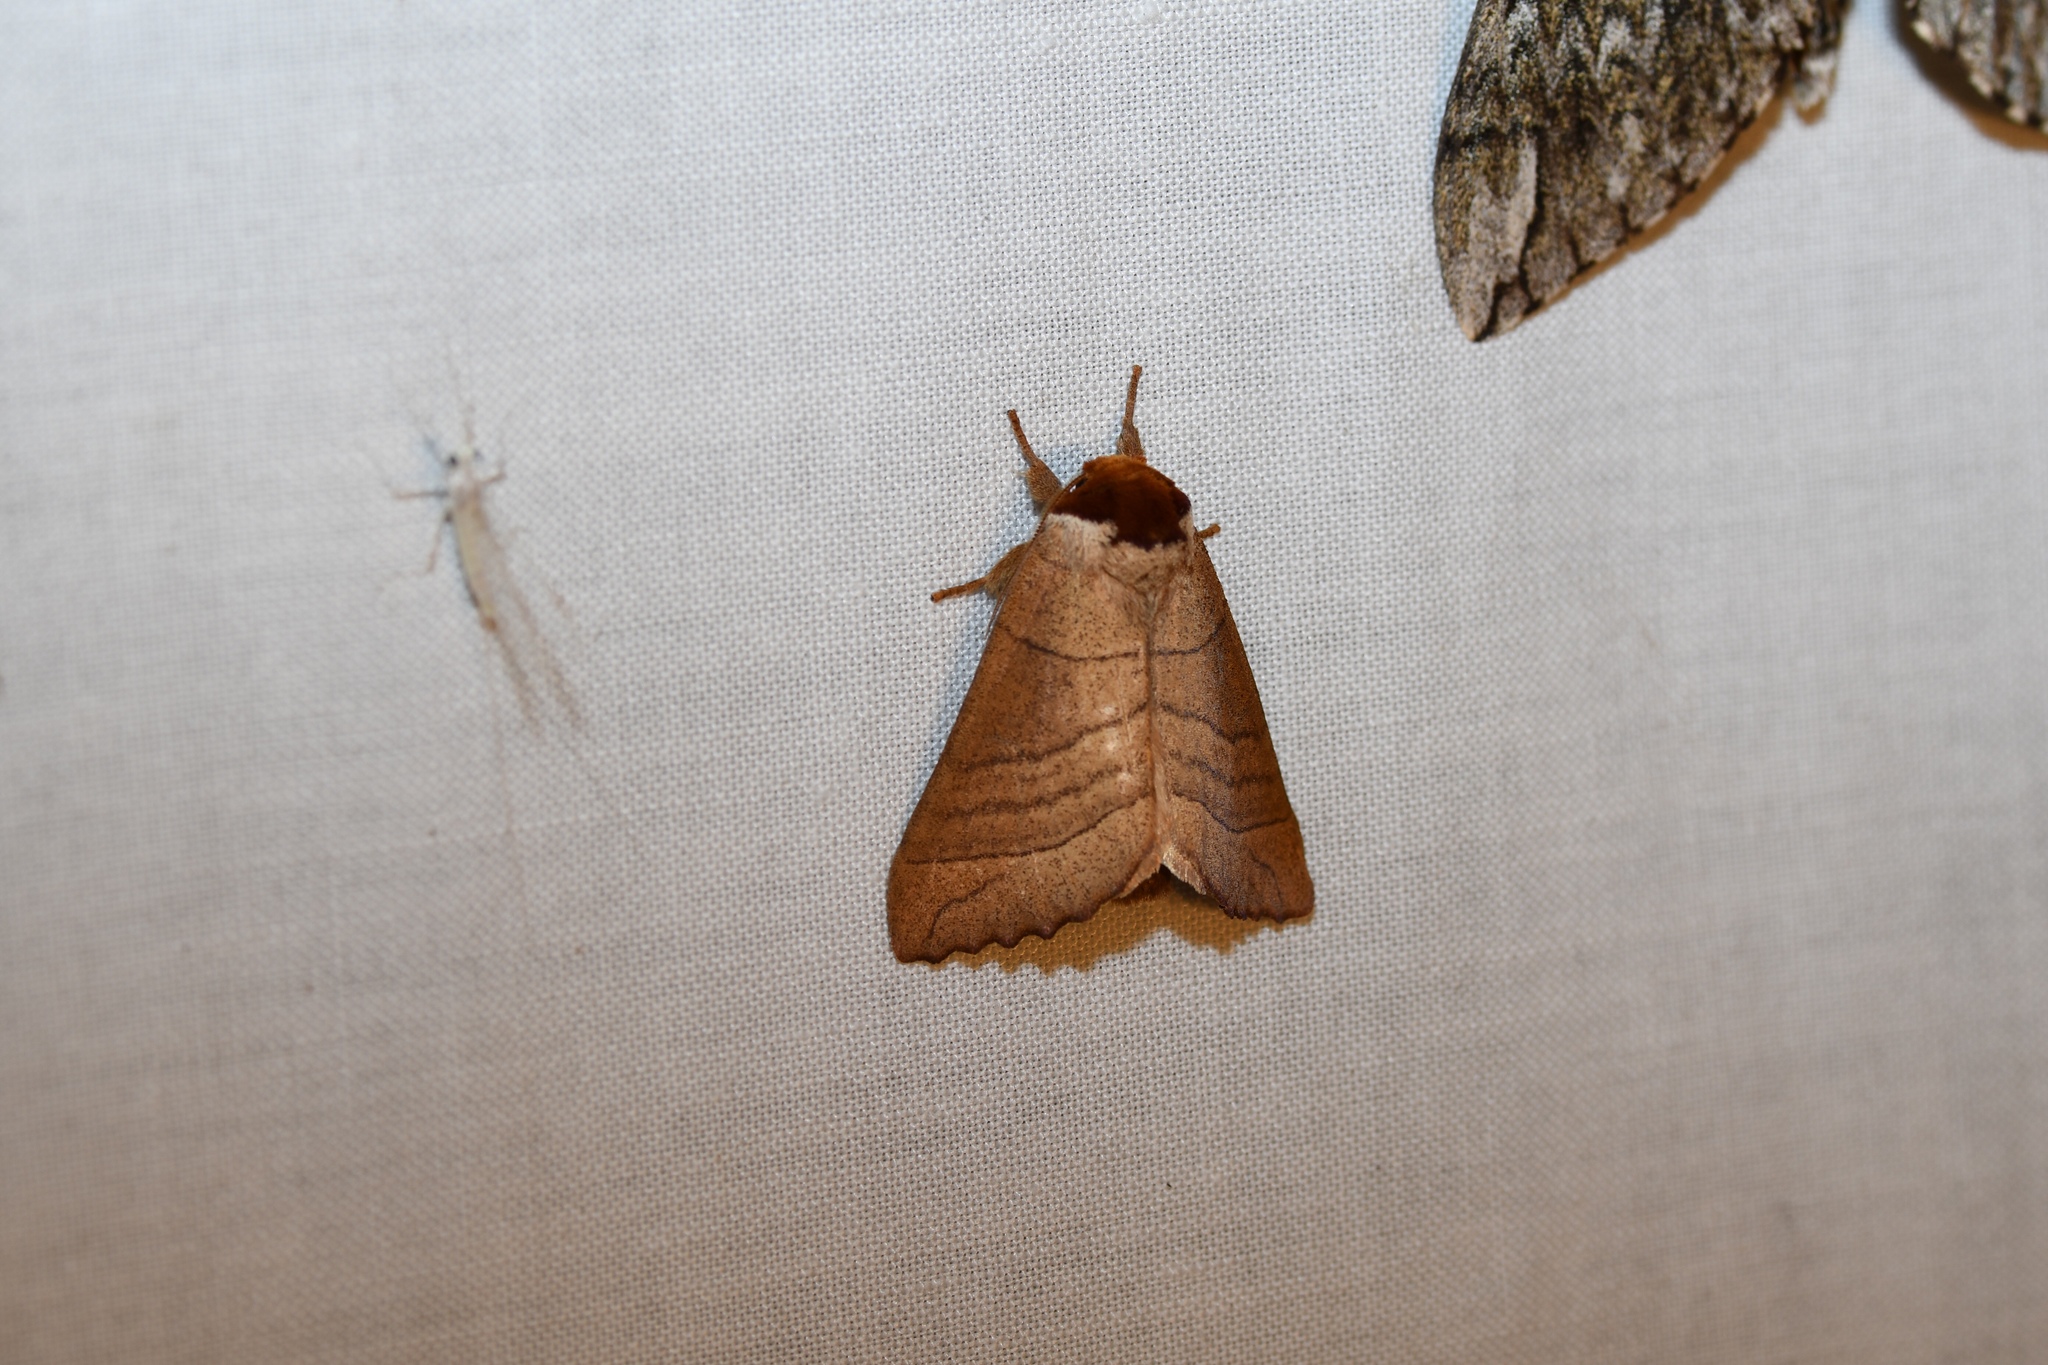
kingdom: Animalia
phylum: Arthropoda
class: Insecta
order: Lepidoptera
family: Notodontidae
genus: Datana
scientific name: Datana ministra
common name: Yellow-necked caterpillar moth
